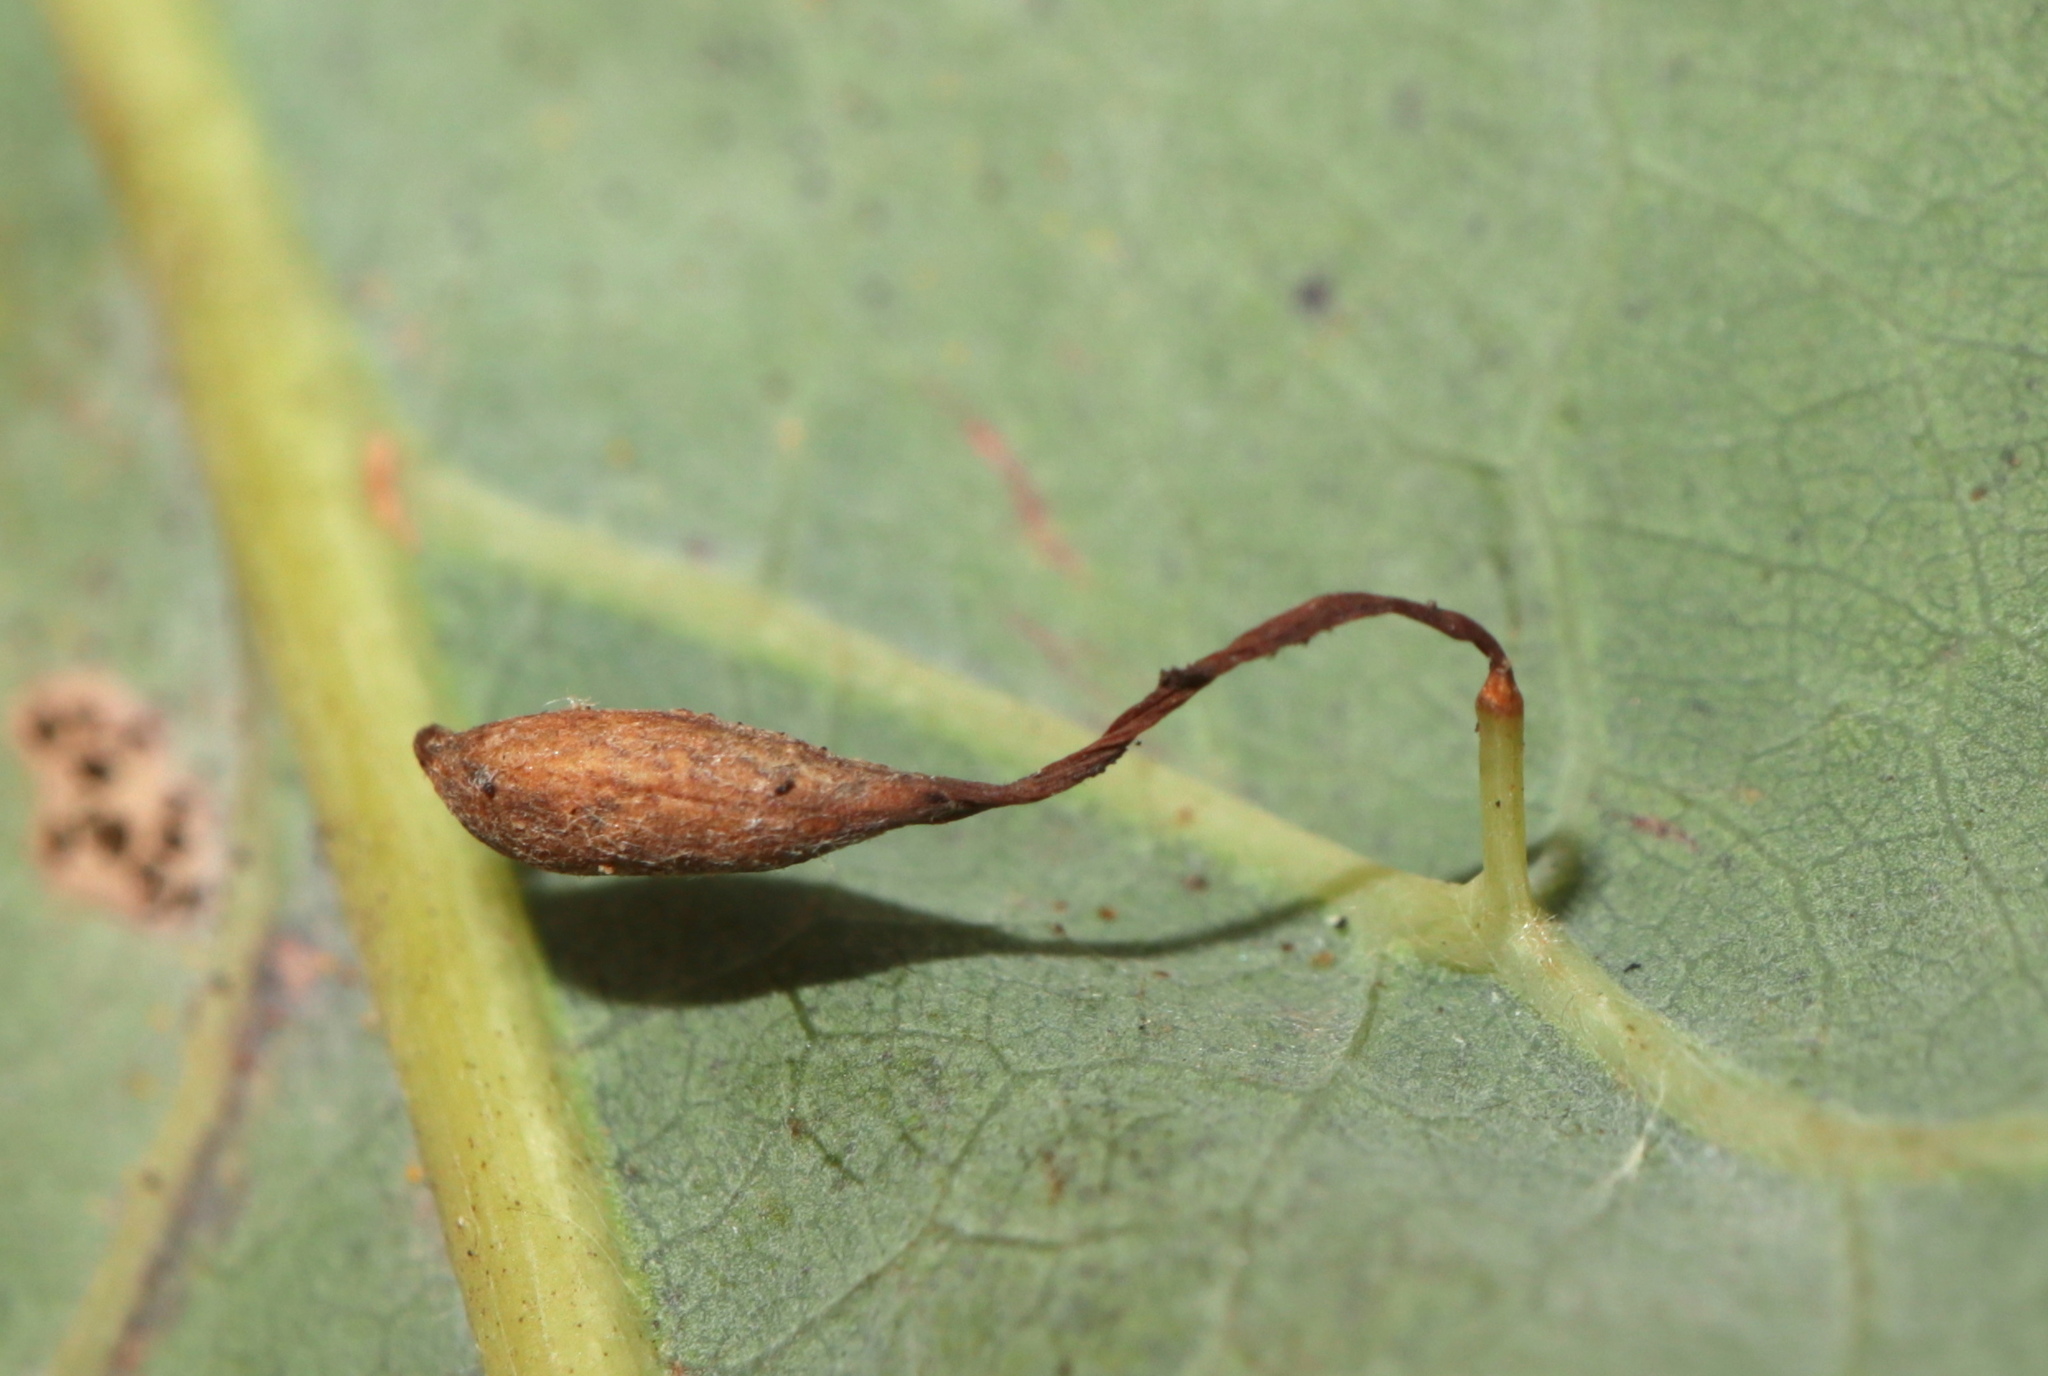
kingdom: Animalia
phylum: Arthropoda
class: Insecta
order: Hymenoptera
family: Cynipidae
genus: Andricus
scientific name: Andricus
